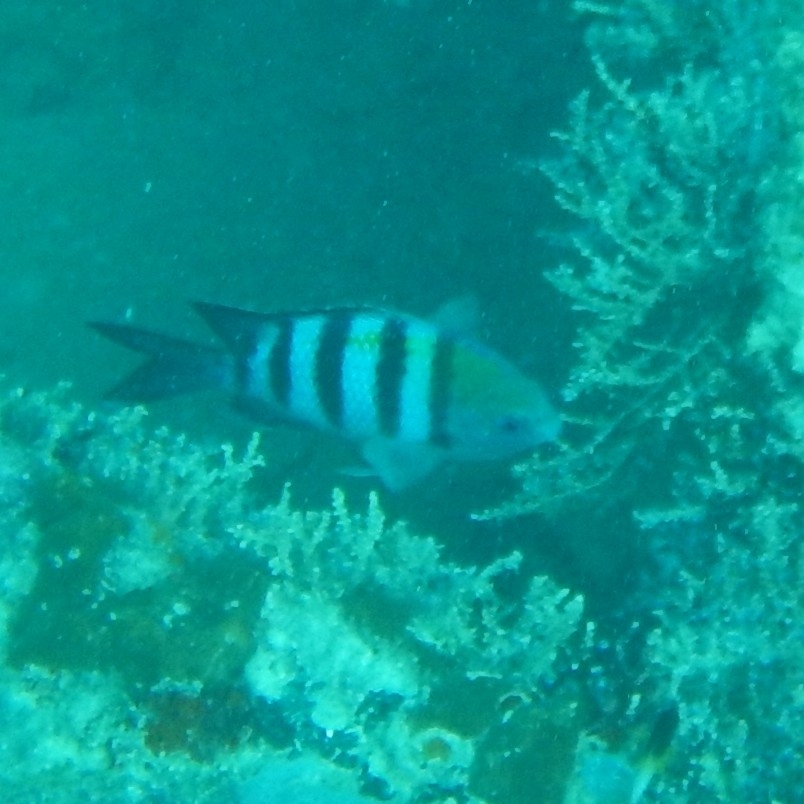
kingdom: Animalia
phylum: Chordata
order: Perciformes
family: Pomacentridae
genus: Abudefduf
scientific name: Abudefduf saxatilis
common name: Sergeant major
